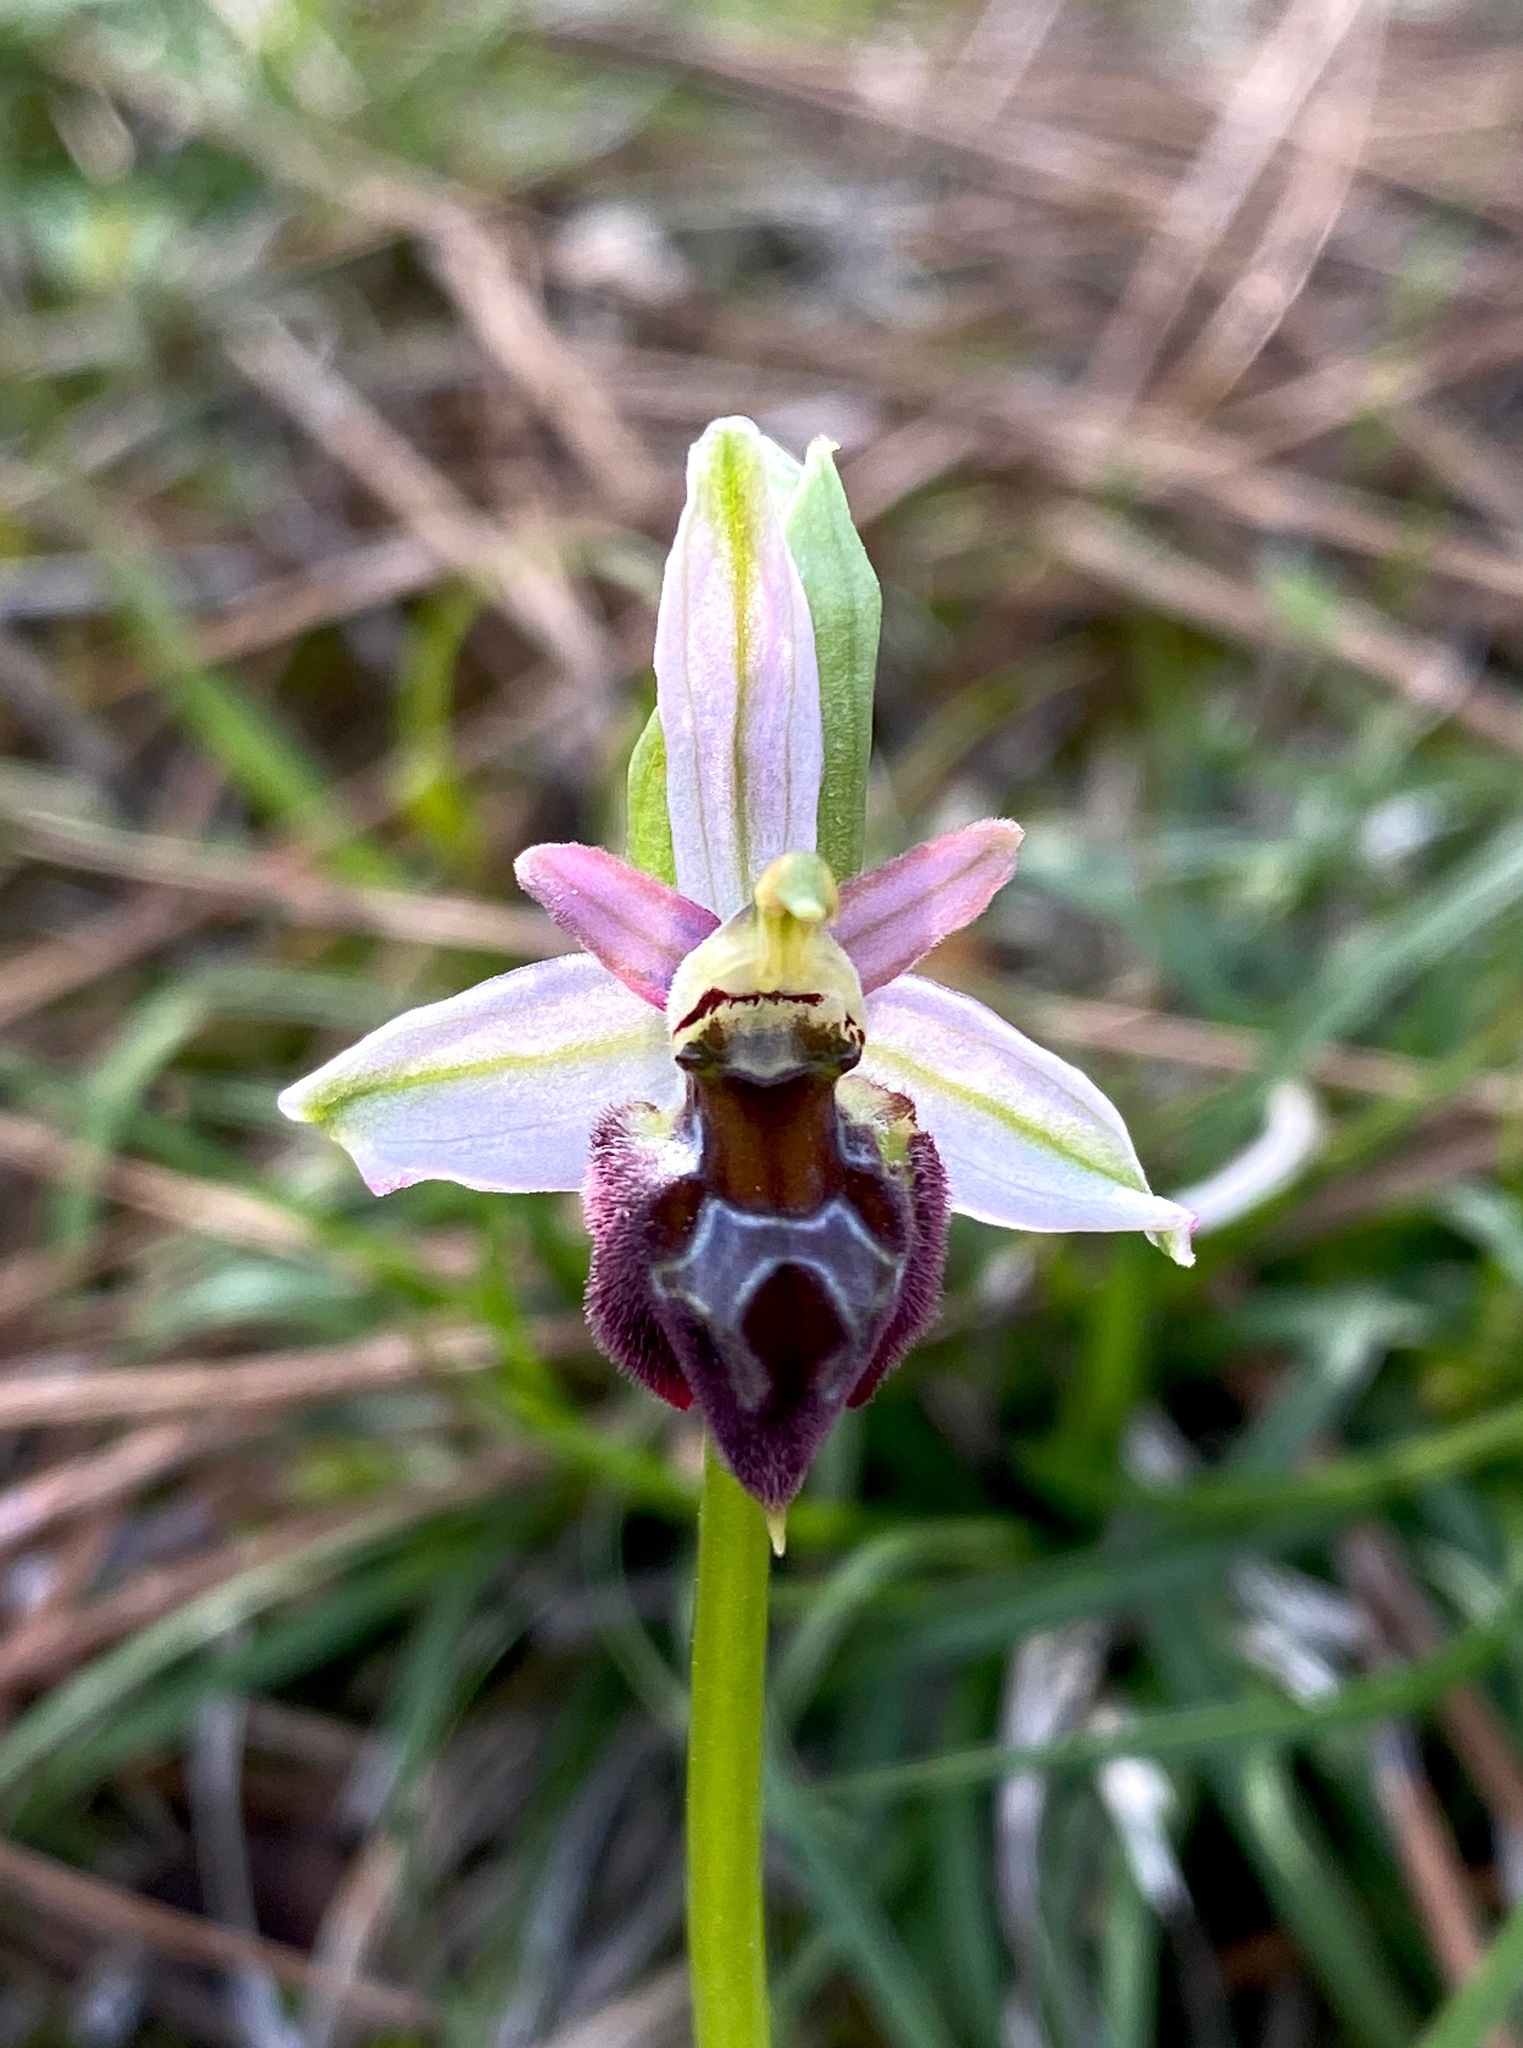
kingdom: Plantae
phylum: Tracheophyta
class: Liliopsida
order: Asparagales
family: Orchidaceae
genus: Ophrys
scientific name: Ophrys argolica
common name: Argolic ophrys
